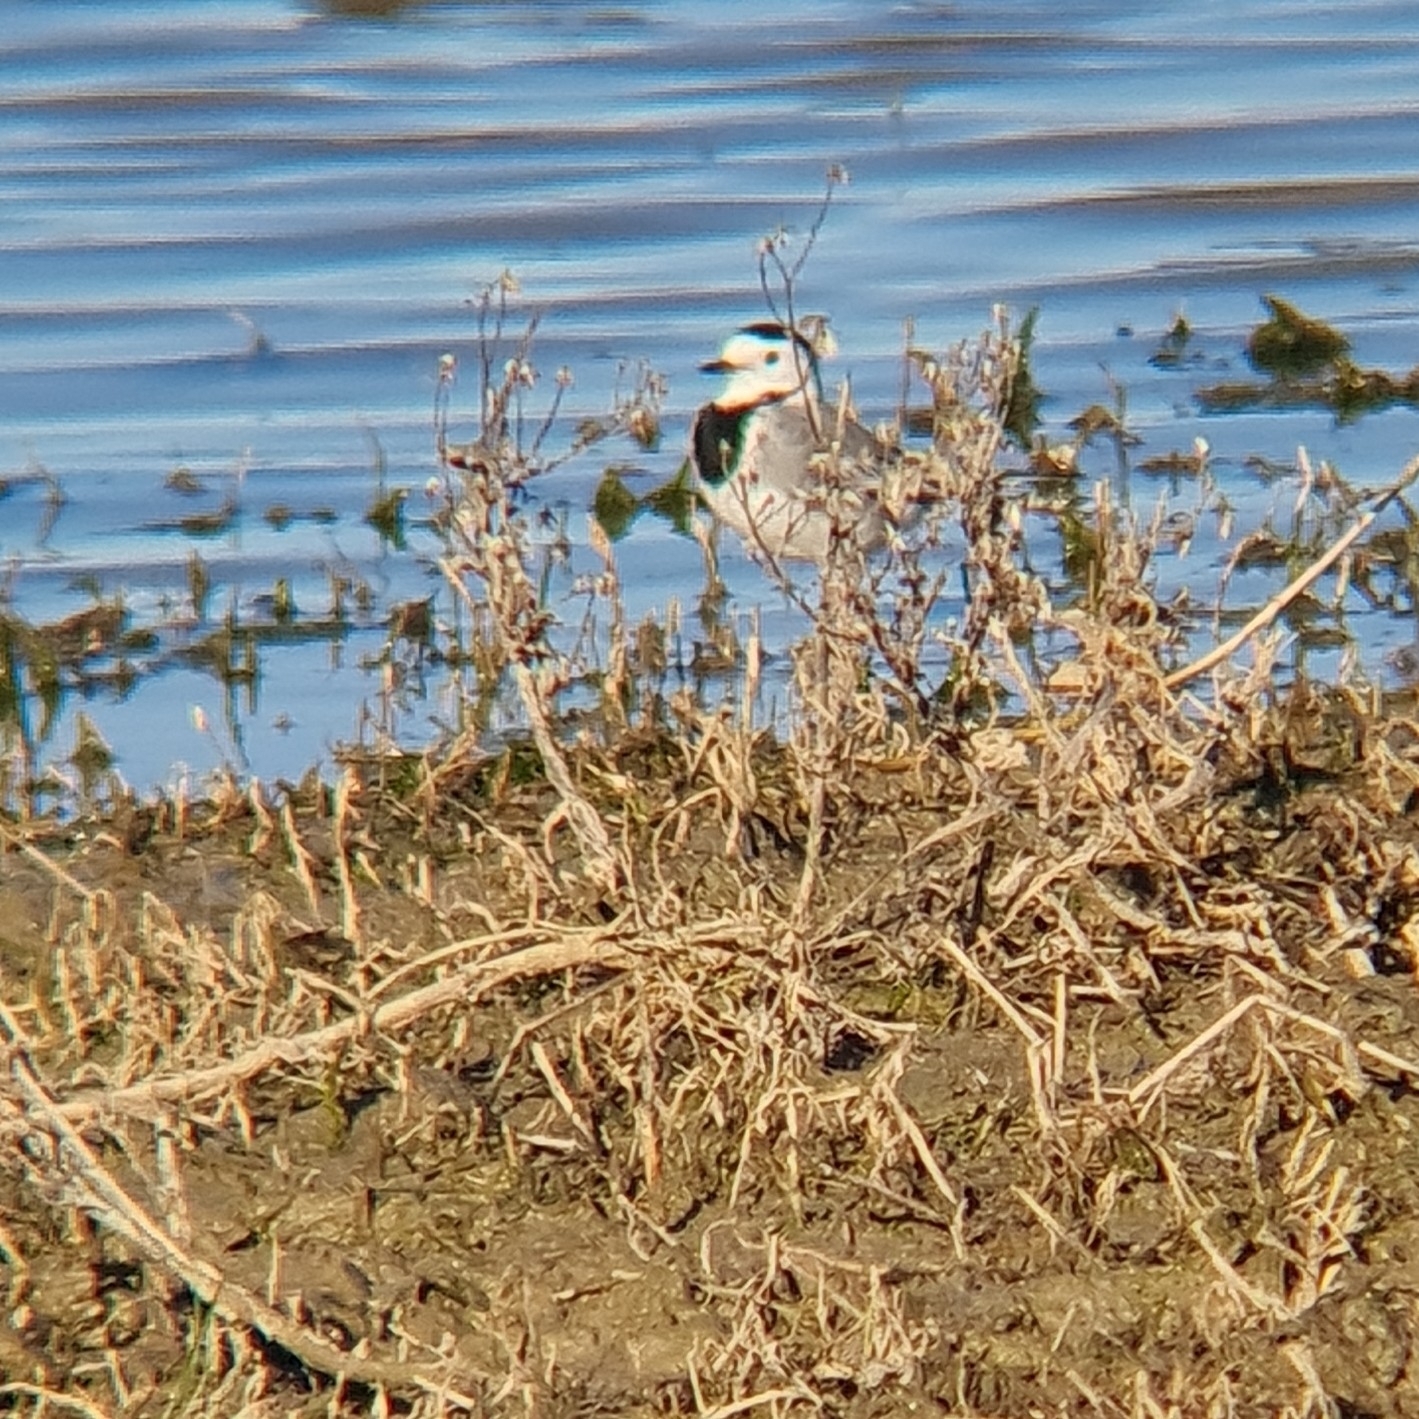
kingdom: Animalia
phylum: Chordata
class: Aves
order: Passeriformes
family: Motacillidae
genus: Motacilla
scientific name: Motacilla alba
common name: White wagtail
